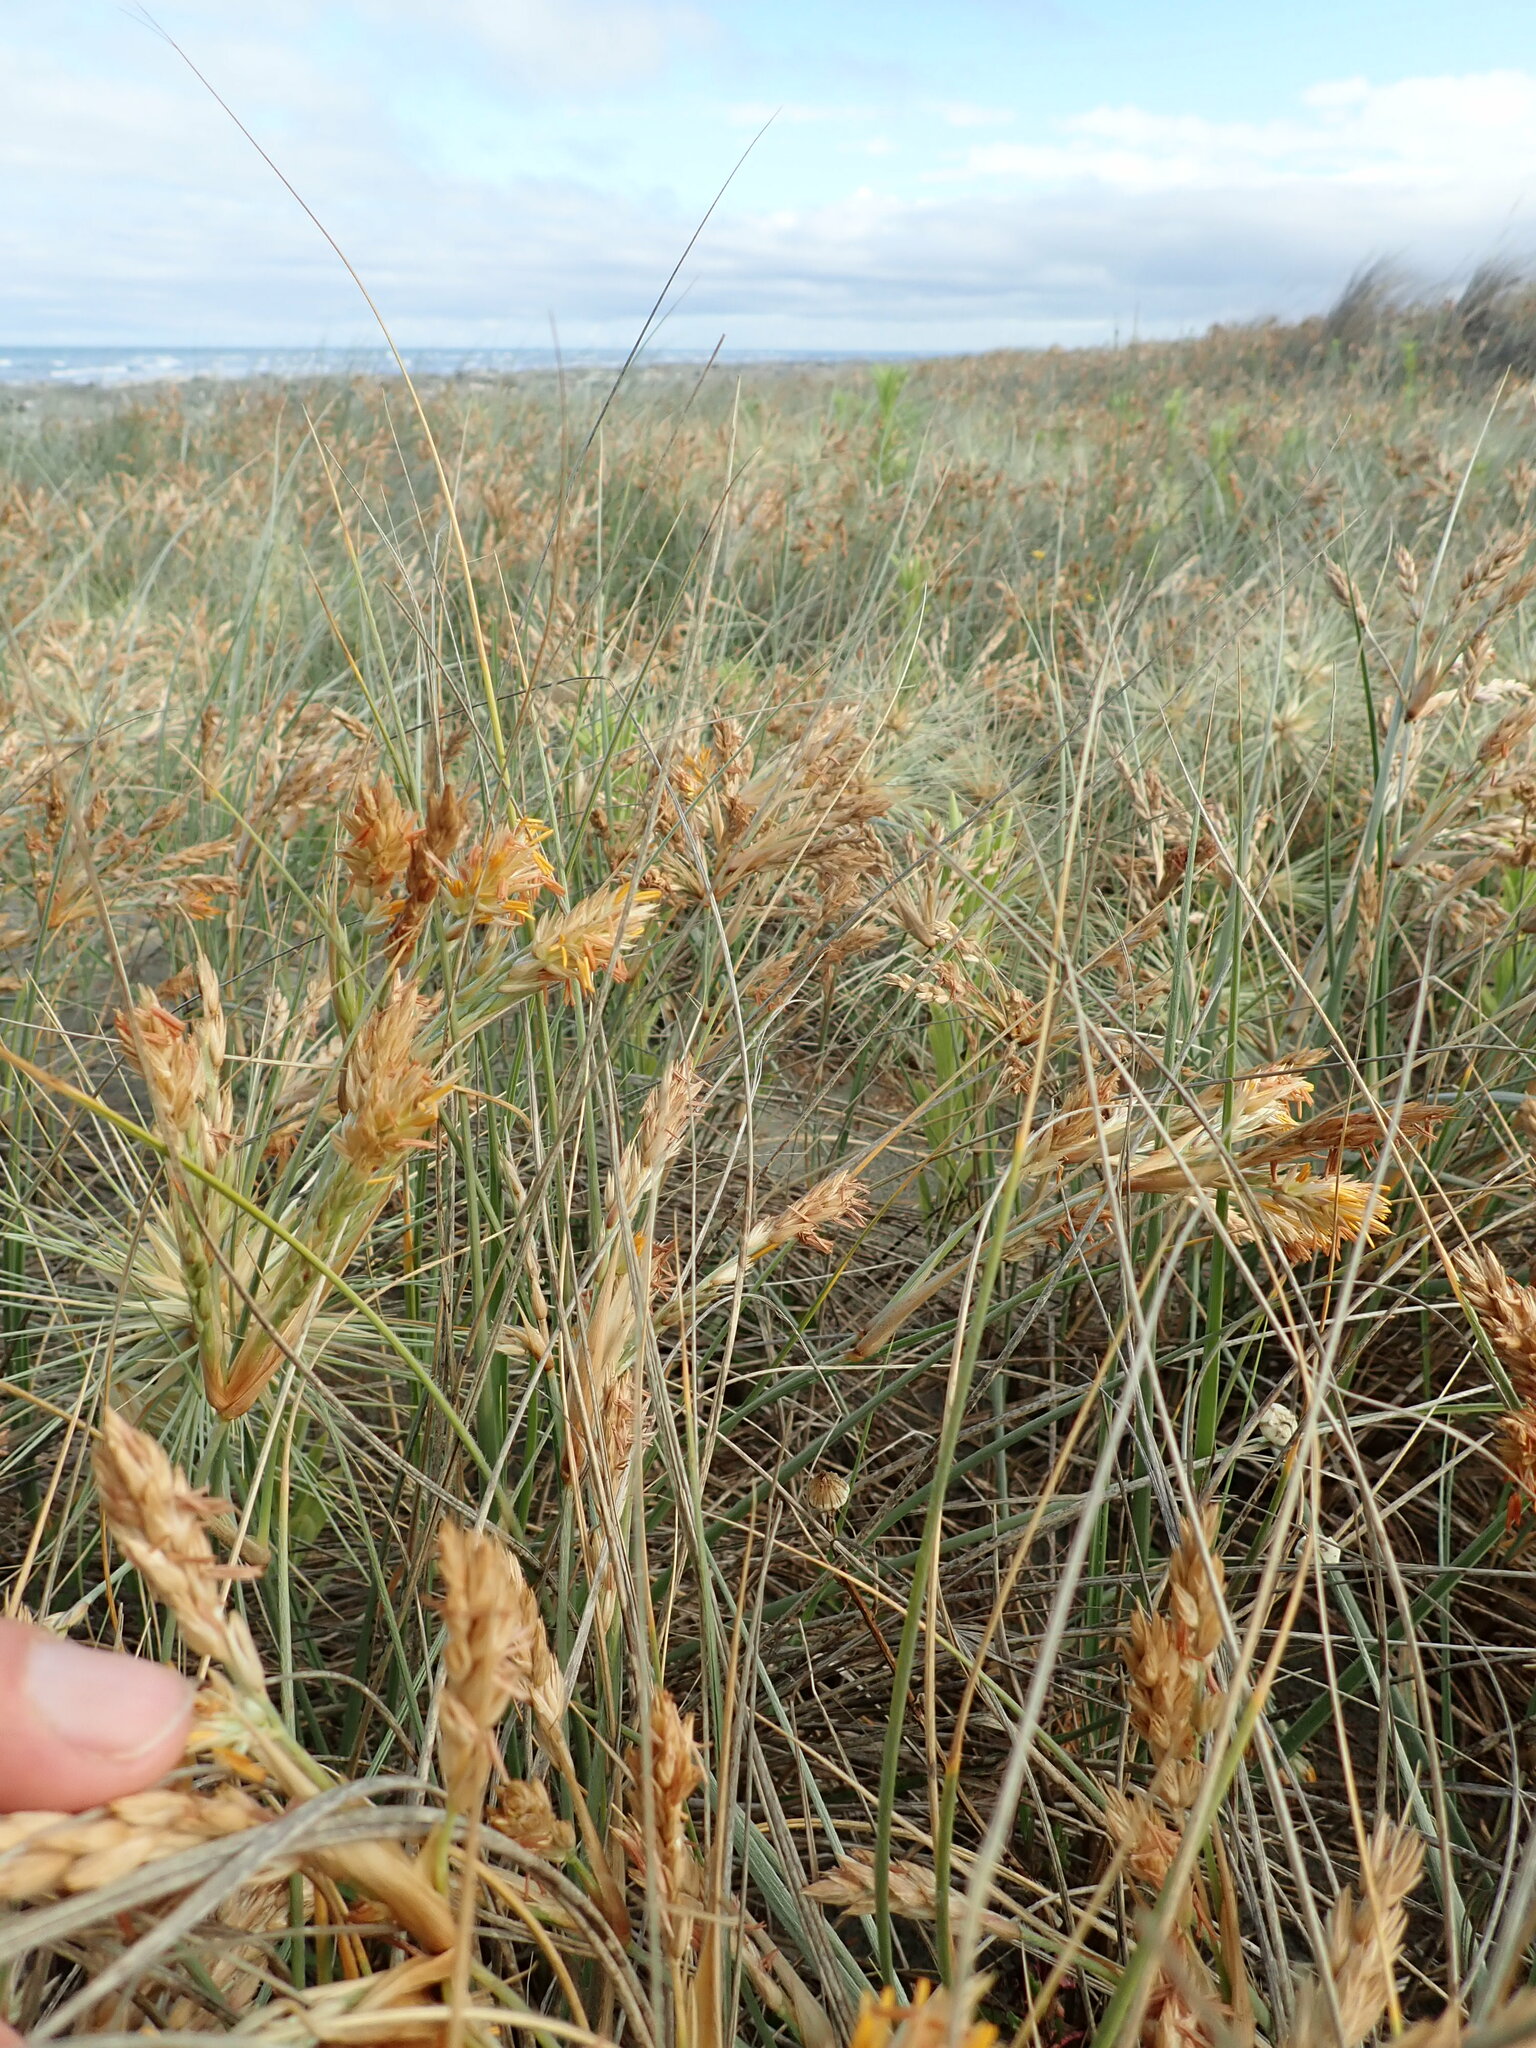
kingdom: Plantae
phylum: Tracheophyta
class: Liliopsida
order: Poales
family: Poaceae
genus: Spinifex
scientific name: Spinifex sericeus
